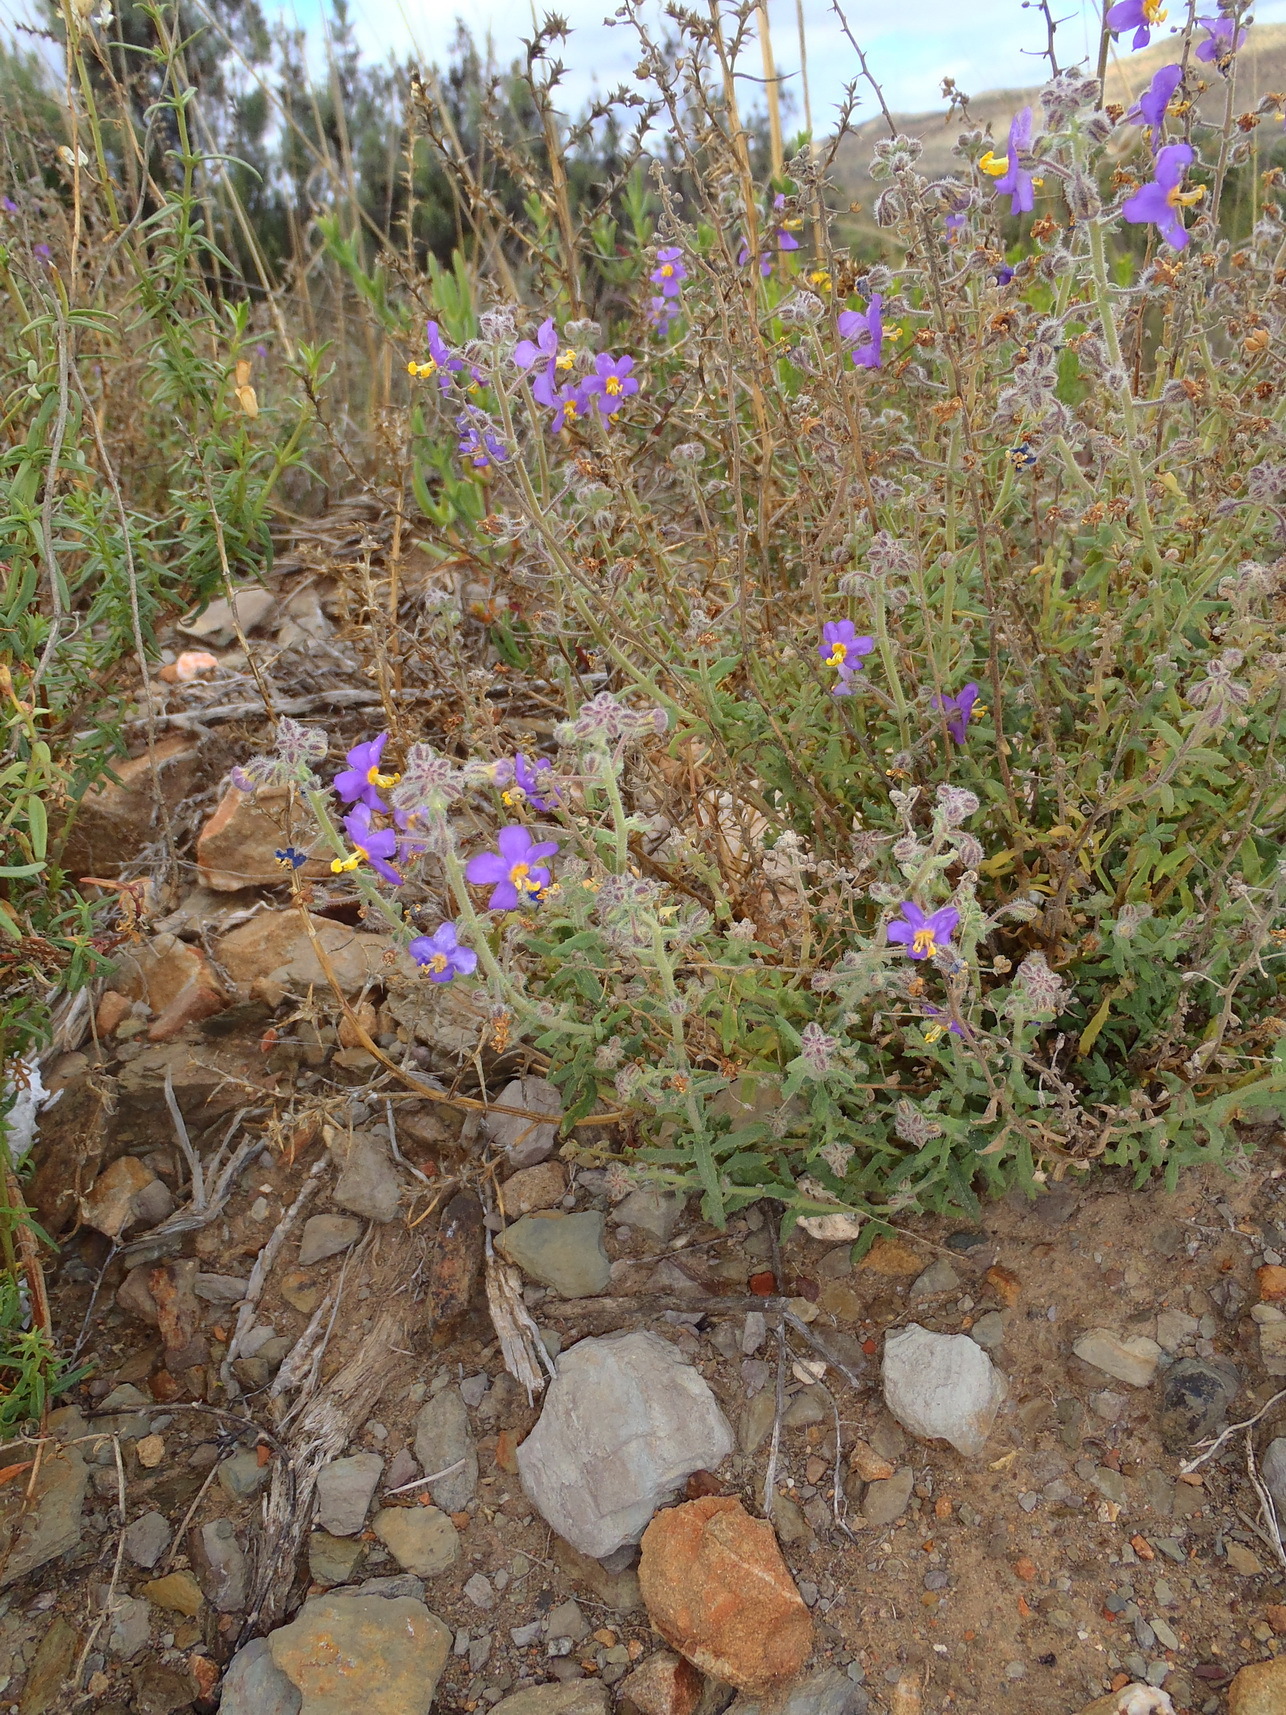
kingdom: Plantae
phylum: Tracheophyta
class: Magnoliopsida
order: Lamiales
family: Scrophulariaceae
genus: Chaenostoma
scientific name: Chaenostoma caeruleum
